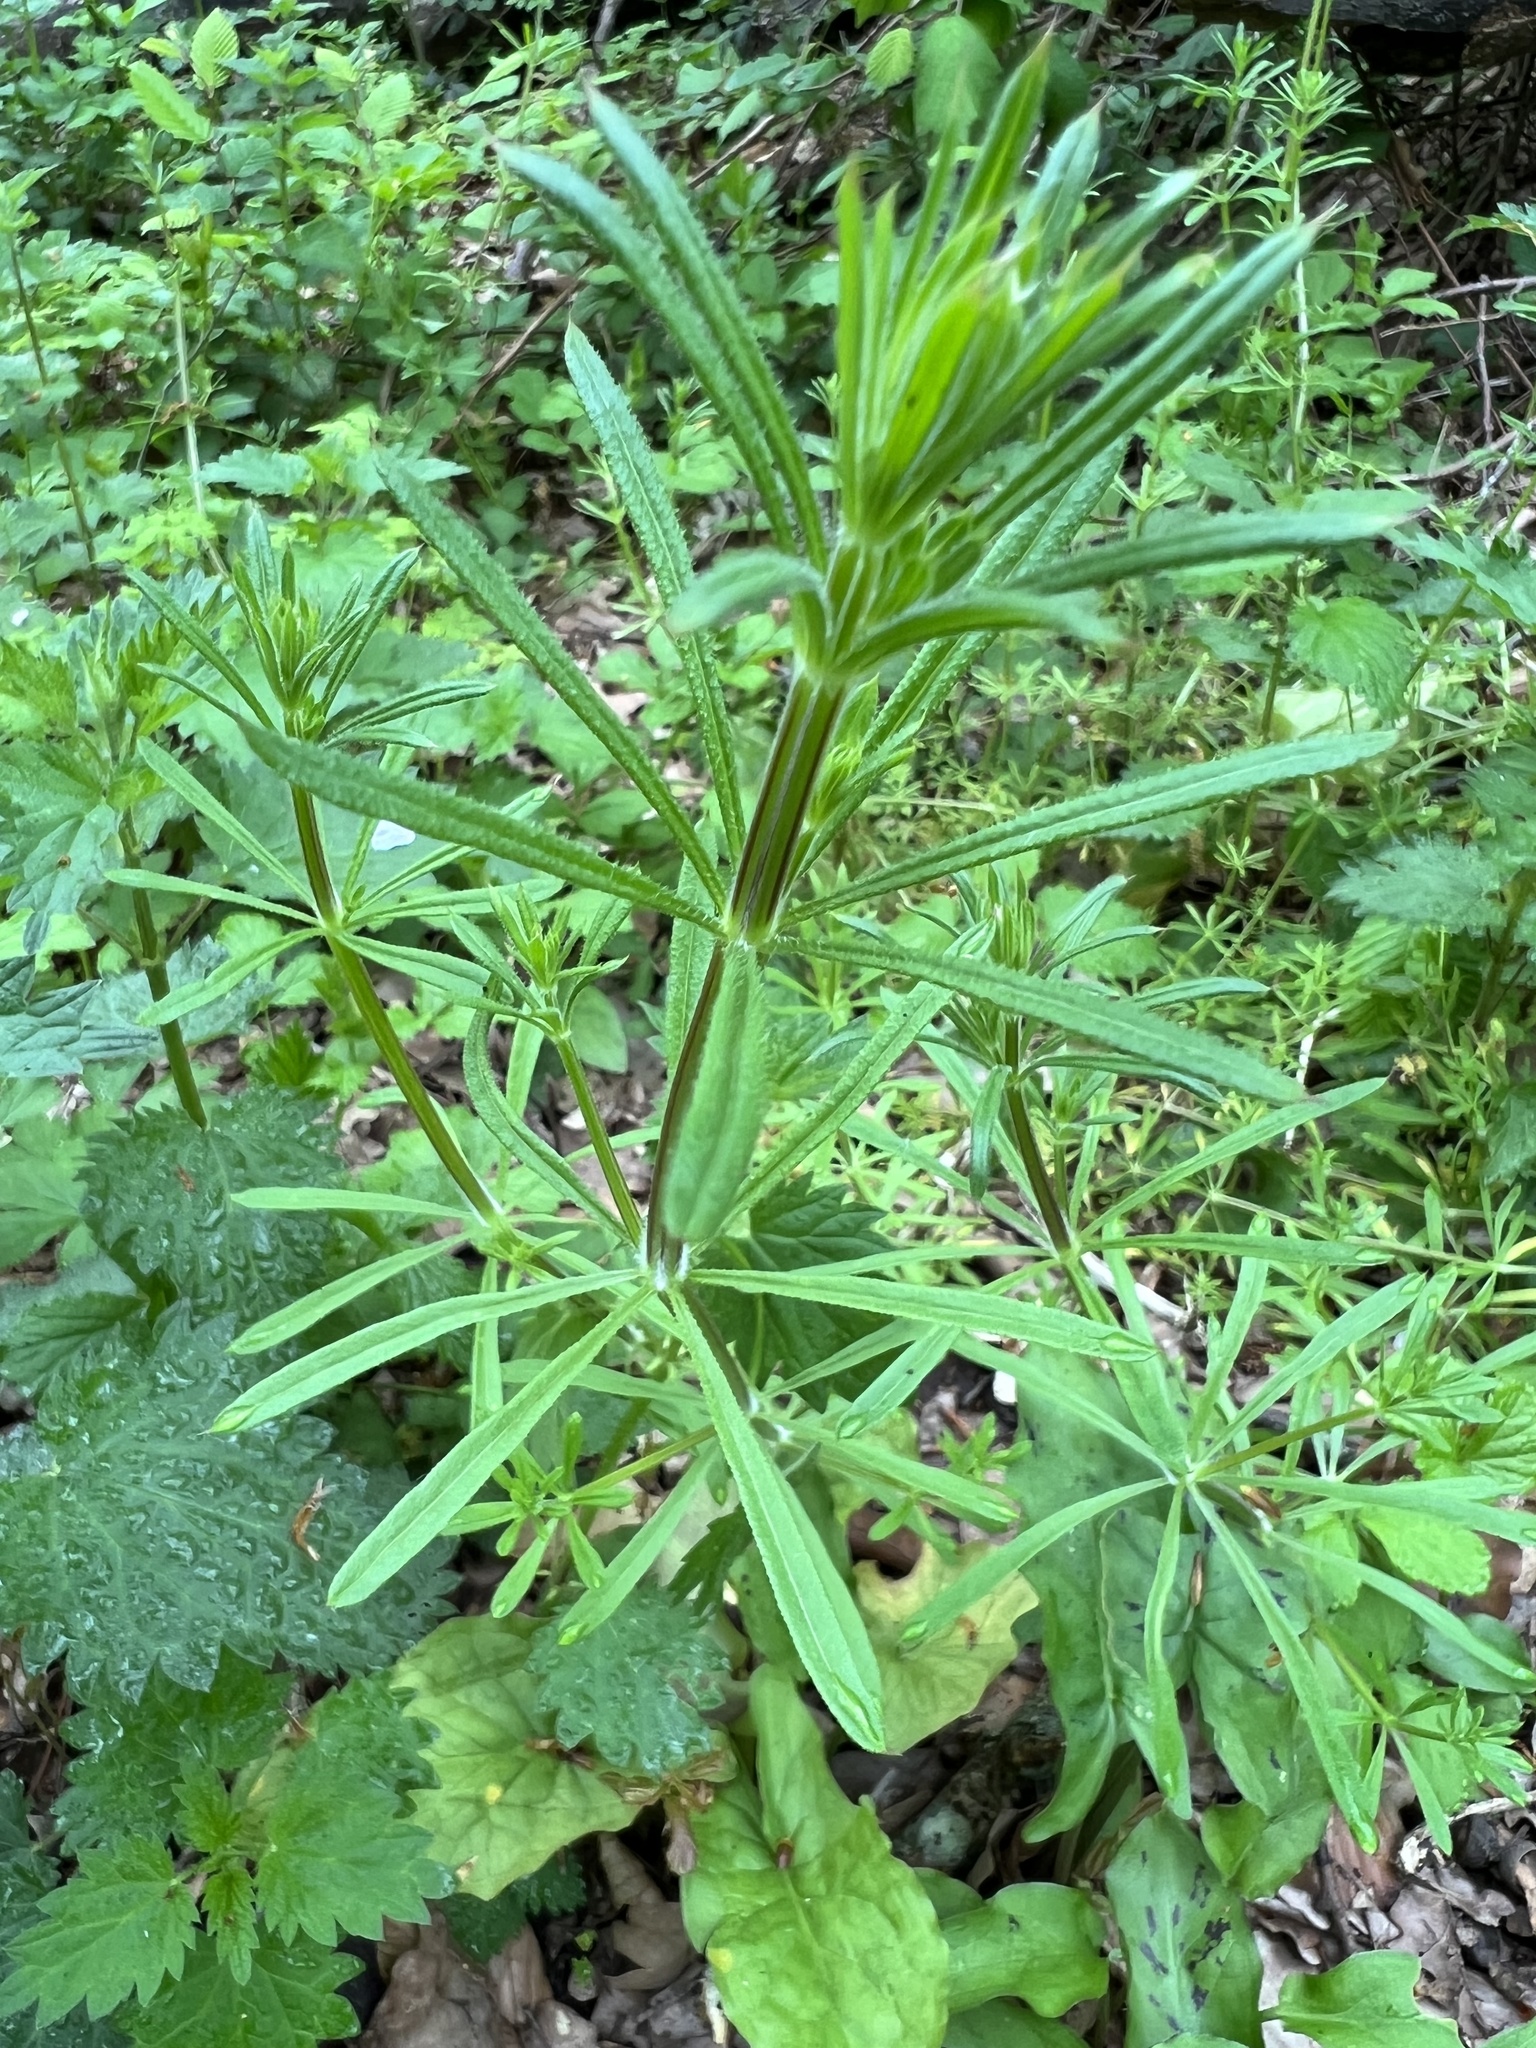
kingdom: Plantae
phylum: Tracheophyta
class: Magnoliopsida
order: Gentianales
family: Rubiaceae
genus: Galium
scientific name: Galium aparine
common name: Cleavers
